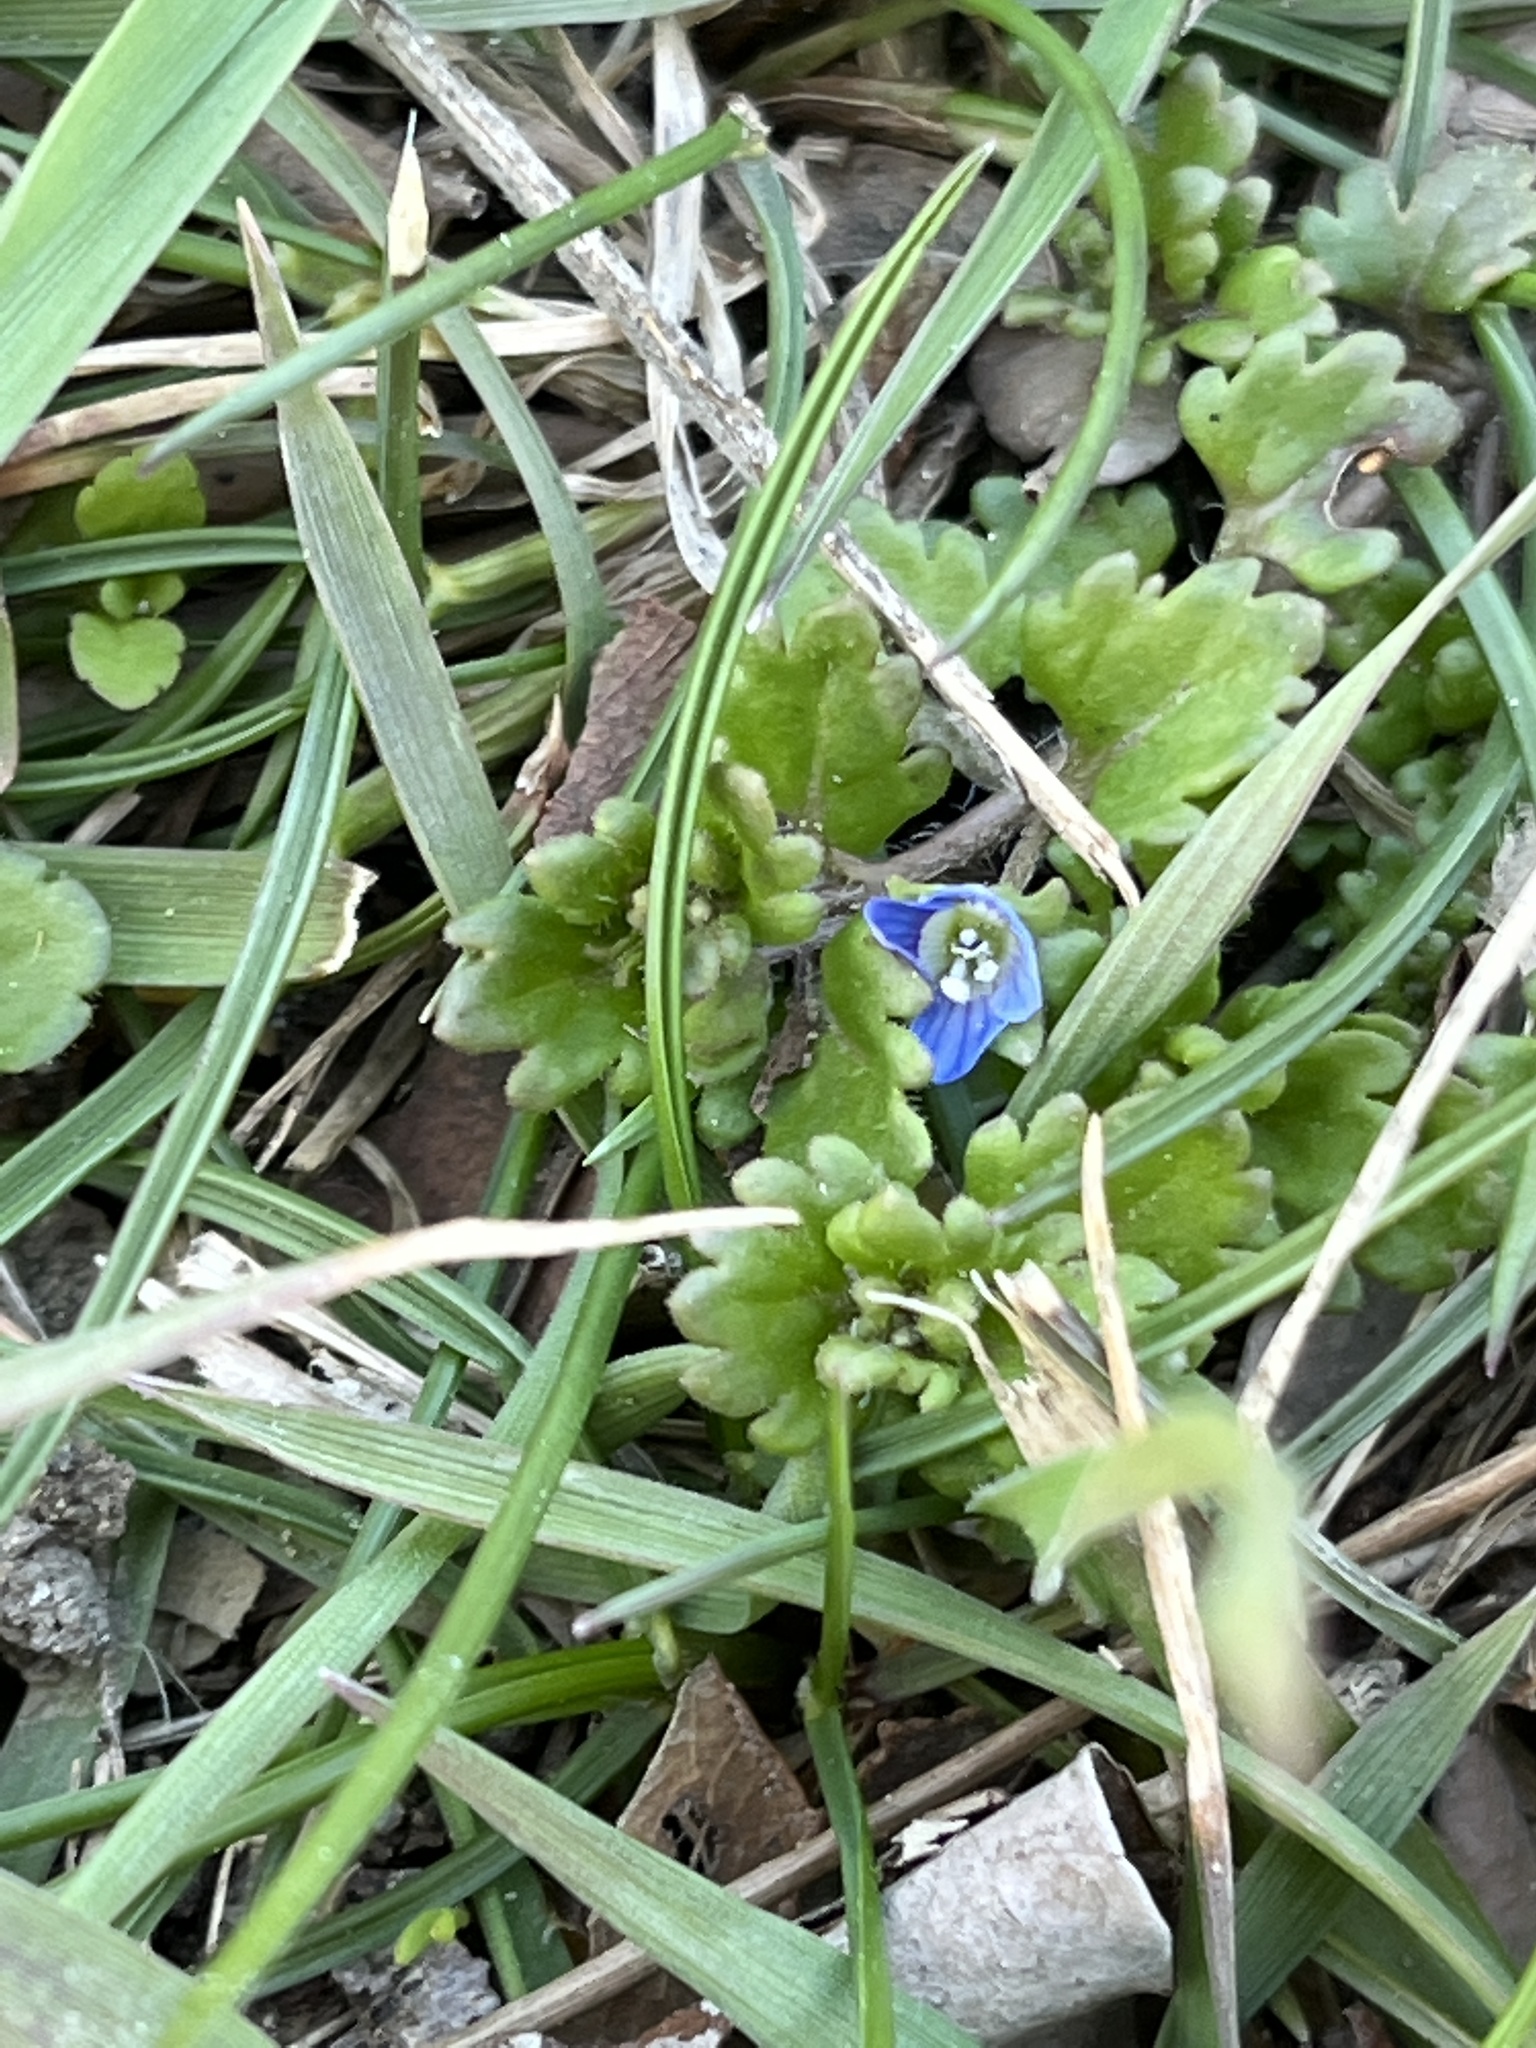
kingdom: Plantae
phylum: Tracheophyta
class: Magnoliopsida
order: Lamiales
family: Plantaginaceae
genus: Veronica
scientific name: Veronica polita
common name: Grey field-speedwell
